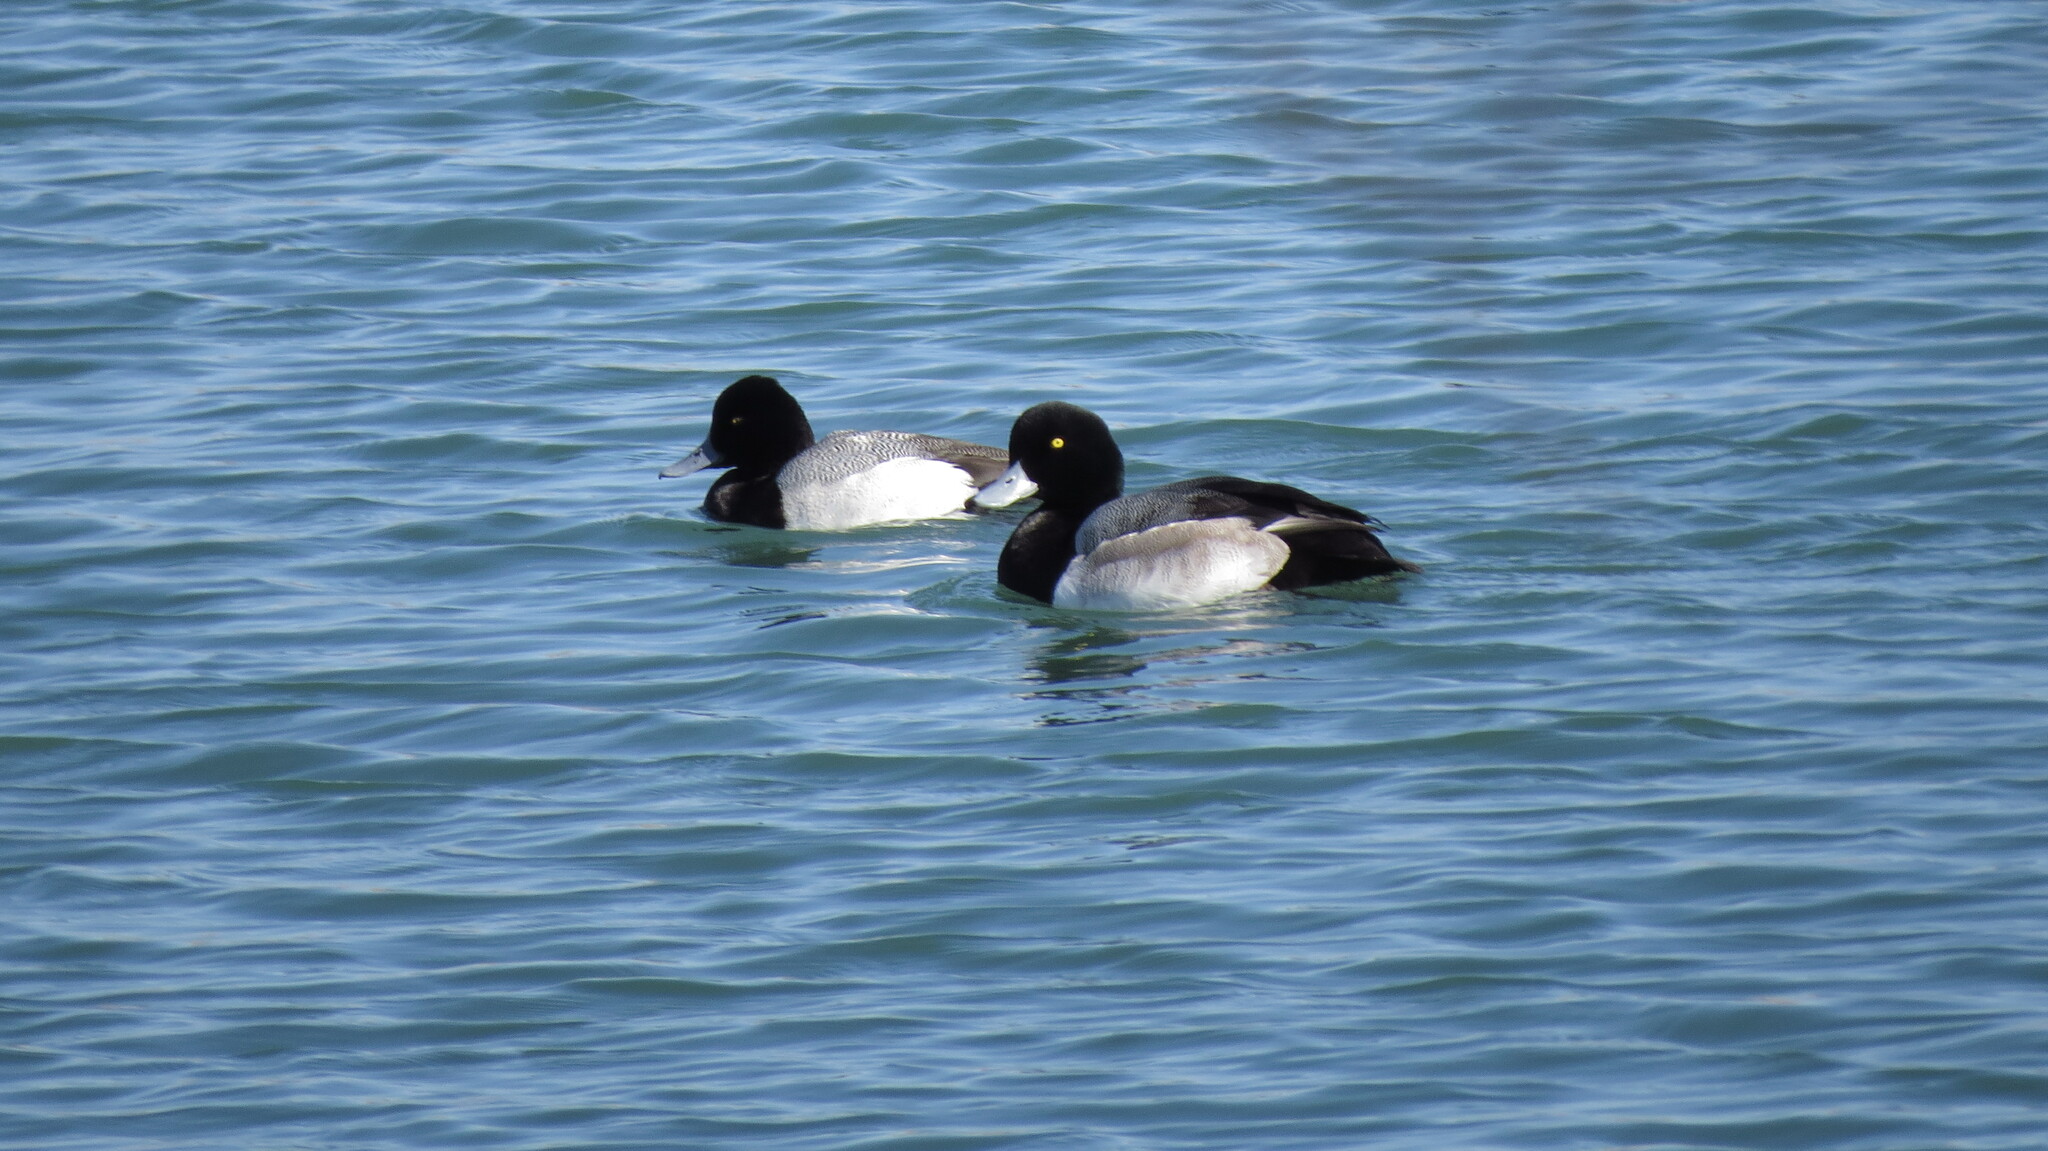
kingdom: Animalia
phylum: Chordata
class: Aves
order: Anseriformes
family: Anatidae
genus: Aythya
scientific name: Aythya affinis
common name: Lesser scaup
